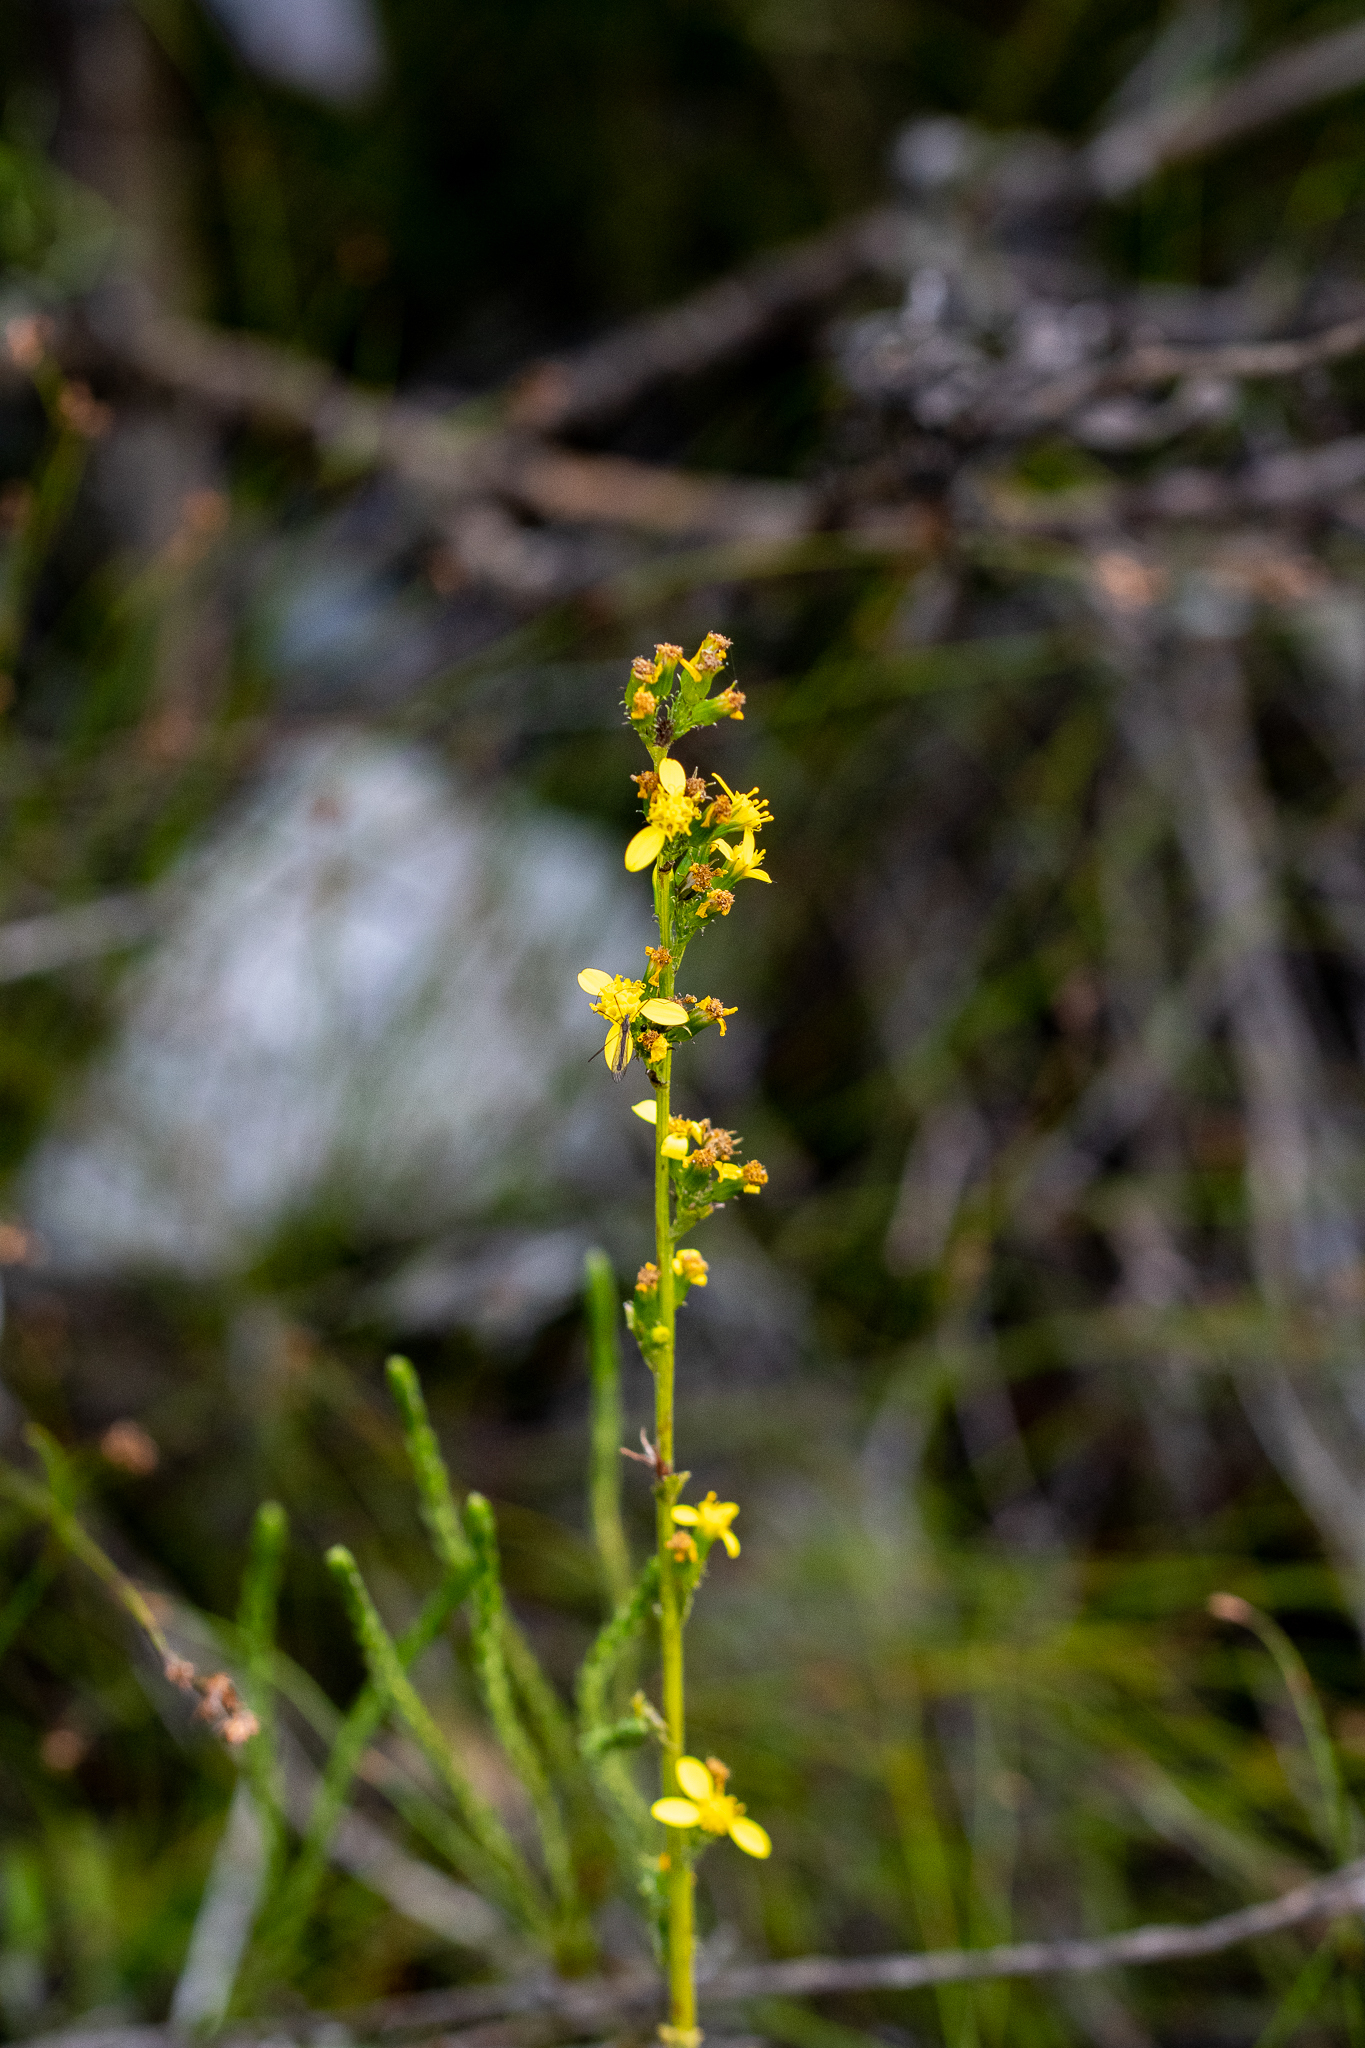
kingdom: Plantae
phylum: Tracheophyta
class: Magnoliopsida
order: Asterales
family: Asteraceae
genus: Senecio
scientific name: Senecio pubigerus
